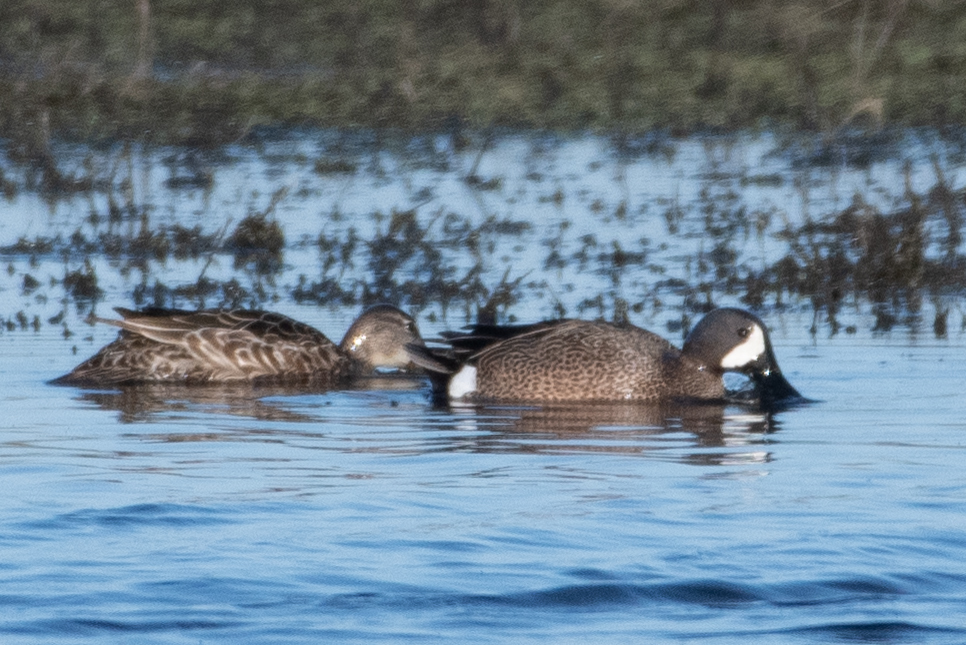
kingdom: Animalia
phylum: Chordata
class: Aves
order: Anseriformes
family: Anatidae
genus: Spatula
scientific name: Spatula discors
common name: Blue-winged teal
